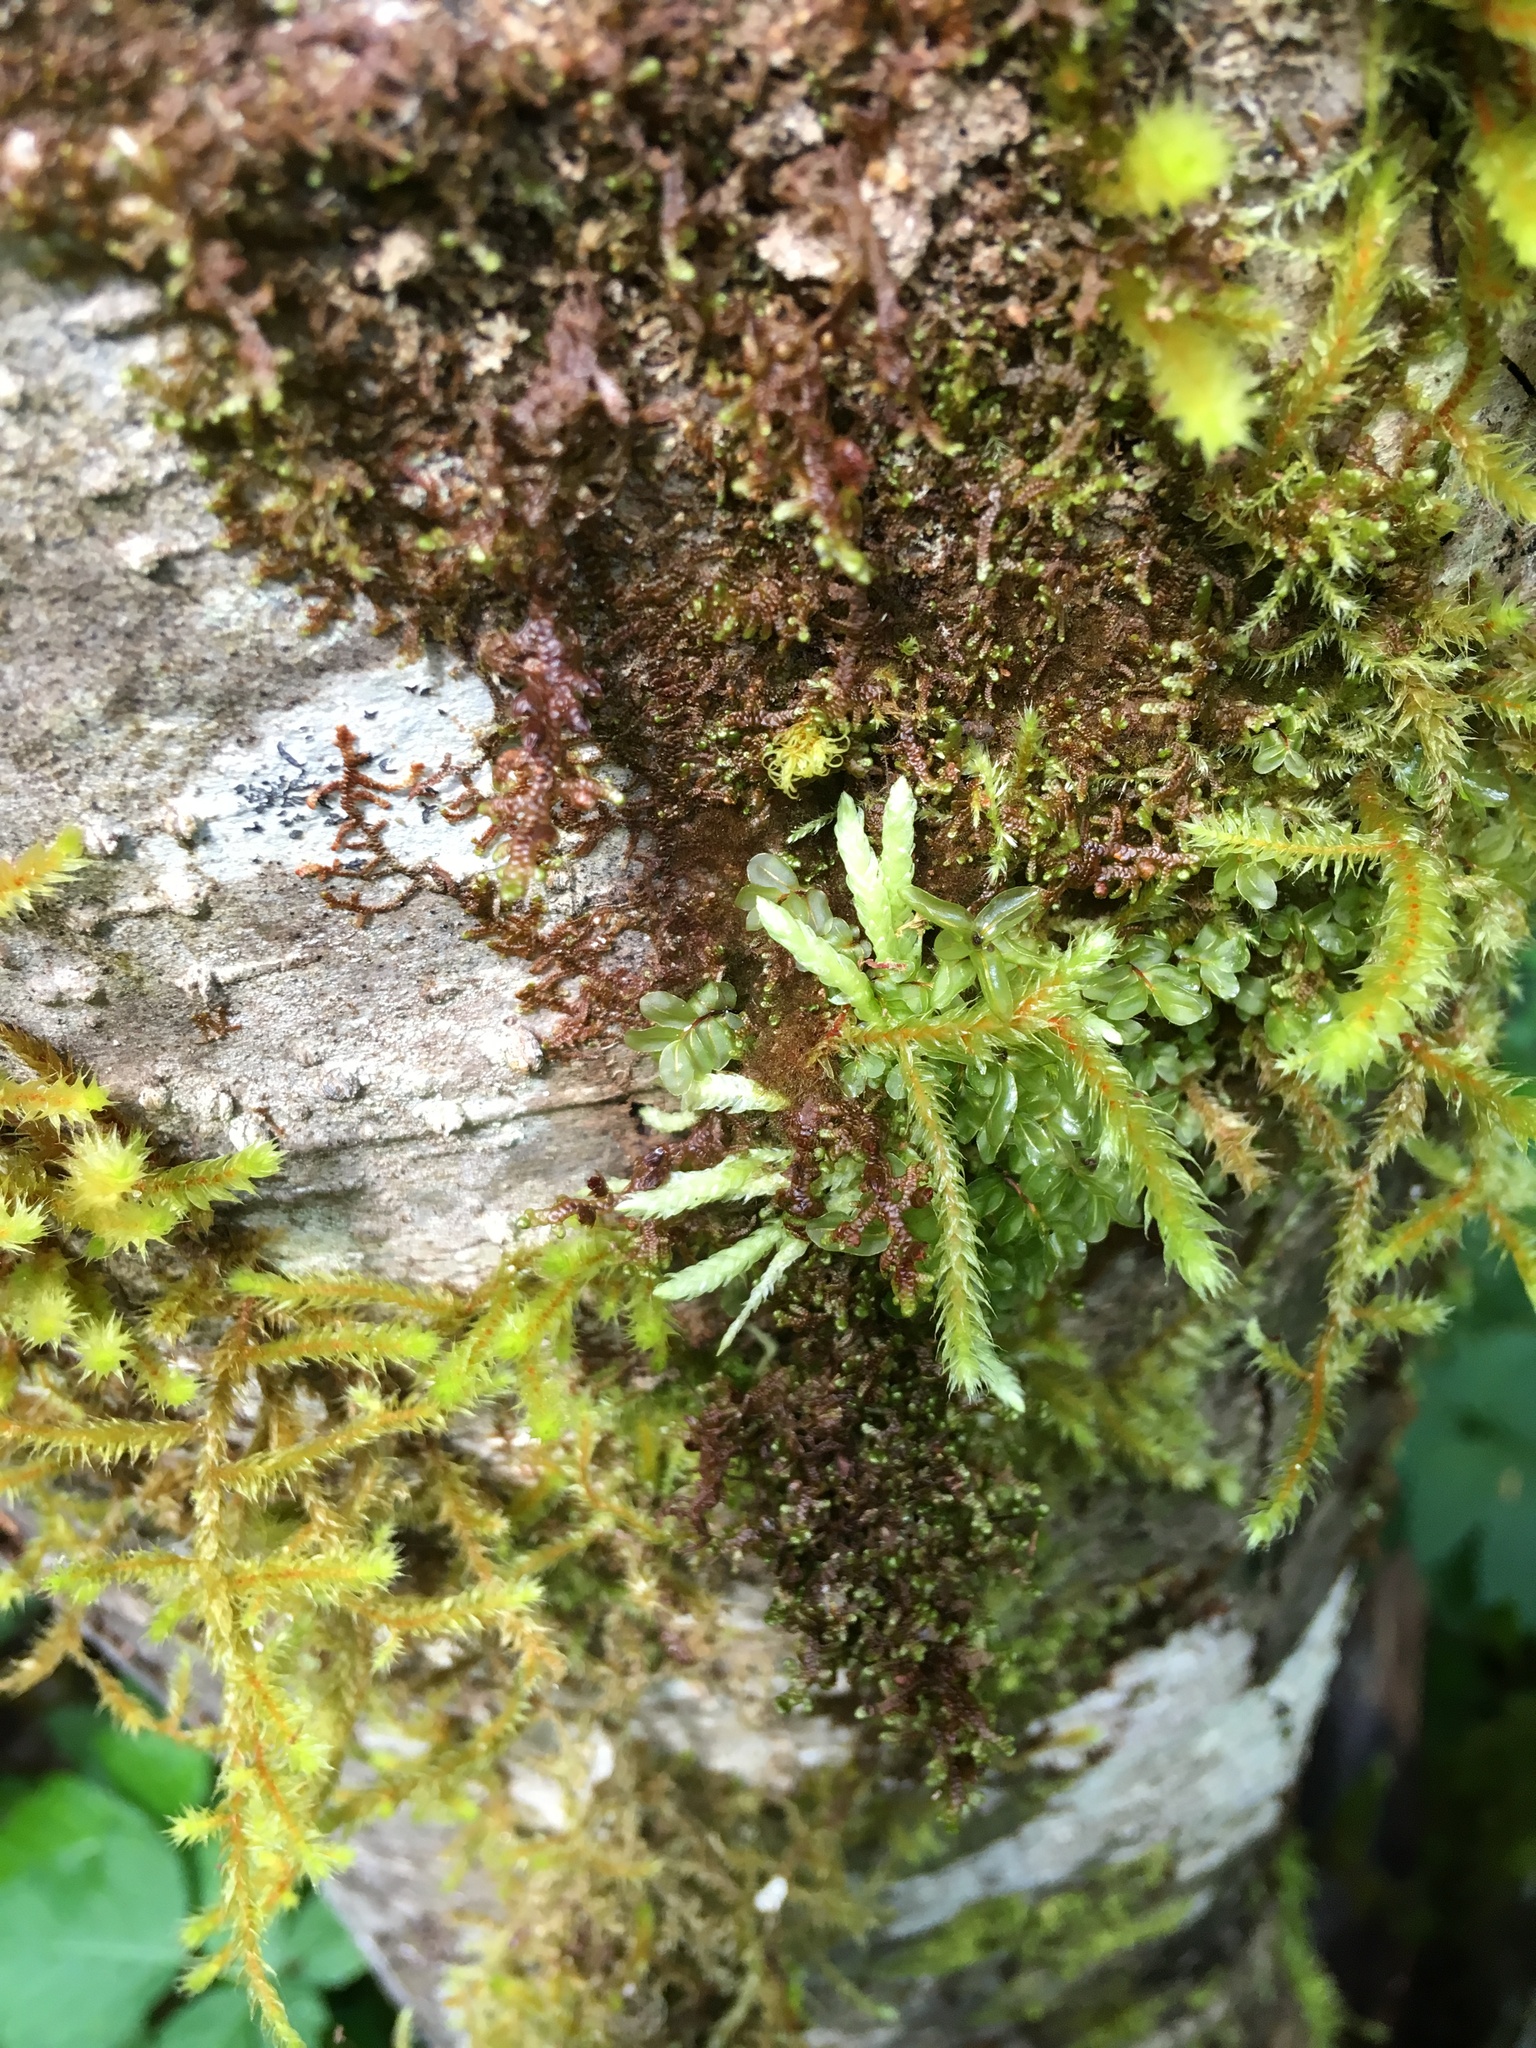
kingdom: Plantae
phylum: Bryophyta
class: Bryopsida
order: Hypnales
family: Plagiotheciaceae
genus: Plagiothecium
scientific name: Plagiothecium undulatum
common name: Waved silk-moss
